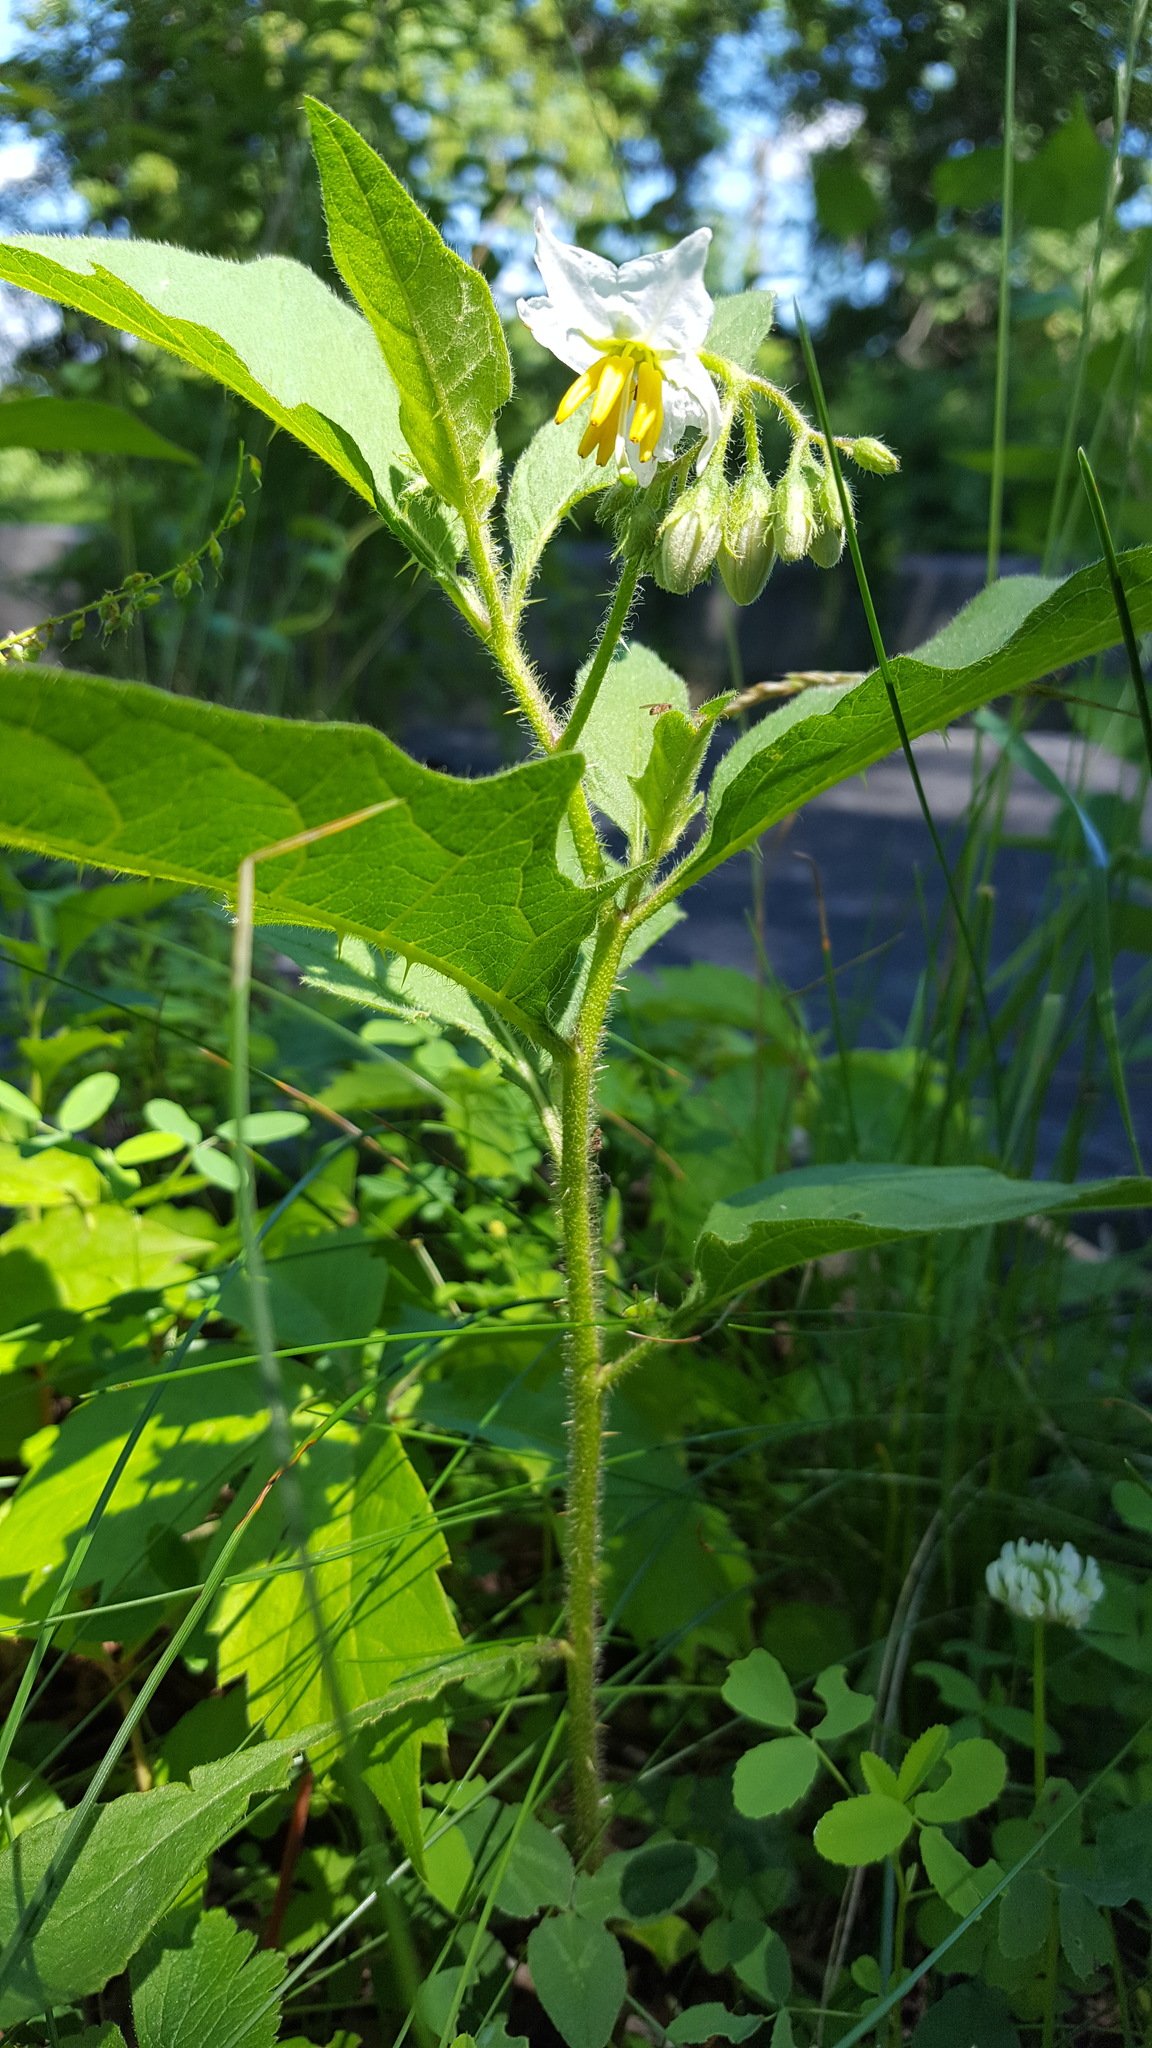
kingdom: Plantae
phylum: Tracheophyta
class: Magnoliopsida
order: Solanales
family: Solanaceae
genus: Solanum
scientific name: Solanum carolinense
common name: Horse-nettle
